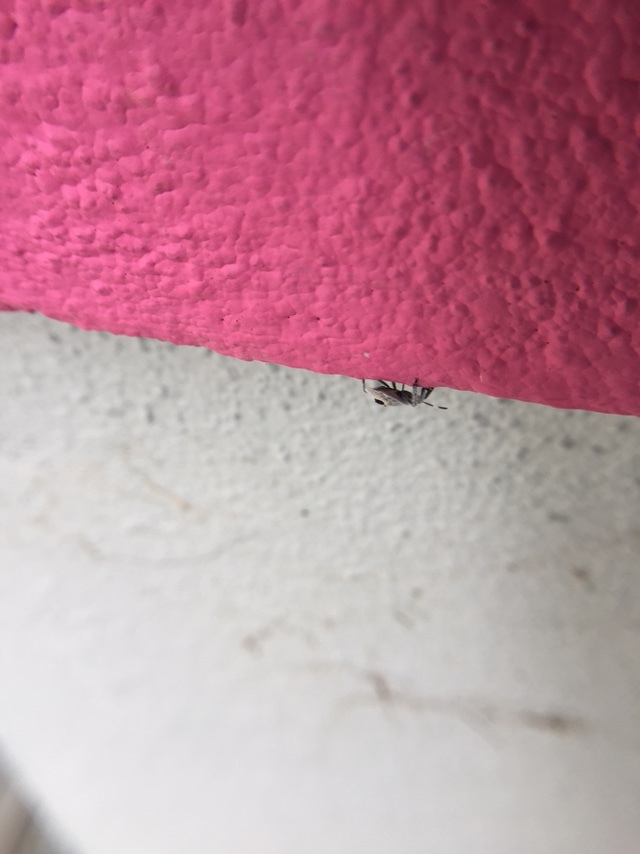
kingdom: Animalia
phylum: Arthropoda
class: Insecta
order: Hemiptera
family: Pentatomidae
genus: Erthesina
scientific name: Erthesina acuminata
